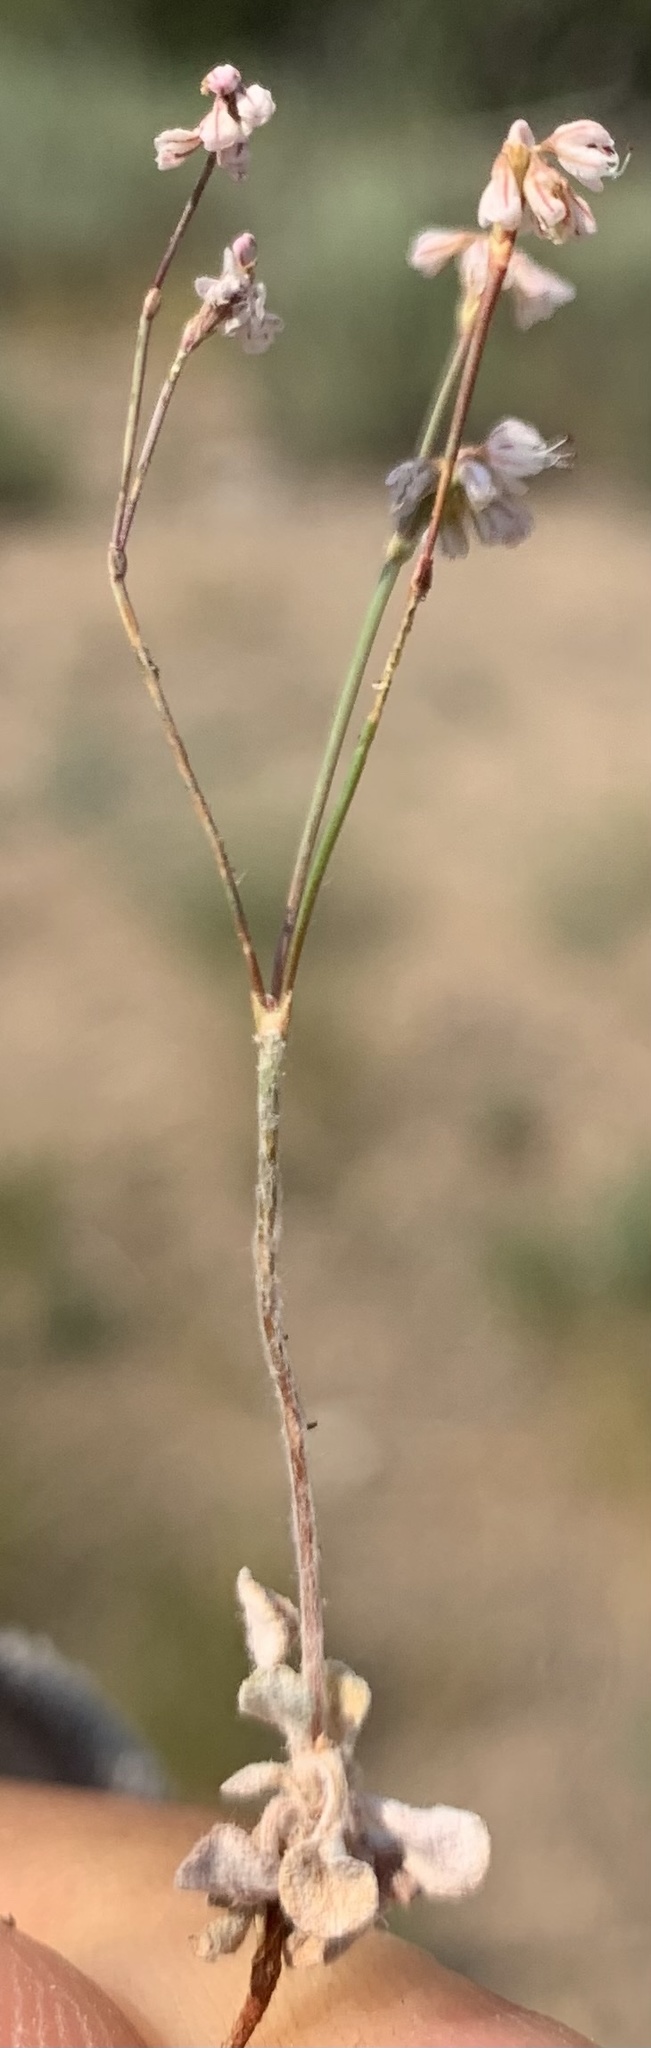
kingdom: Plantae
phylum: Tracheophyta
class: Magnoliopsida
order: Caryophyllales
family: Polygonaceae
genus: Eriogonum
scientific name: Eriogonum vimineum
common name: Wicker buckwheat
